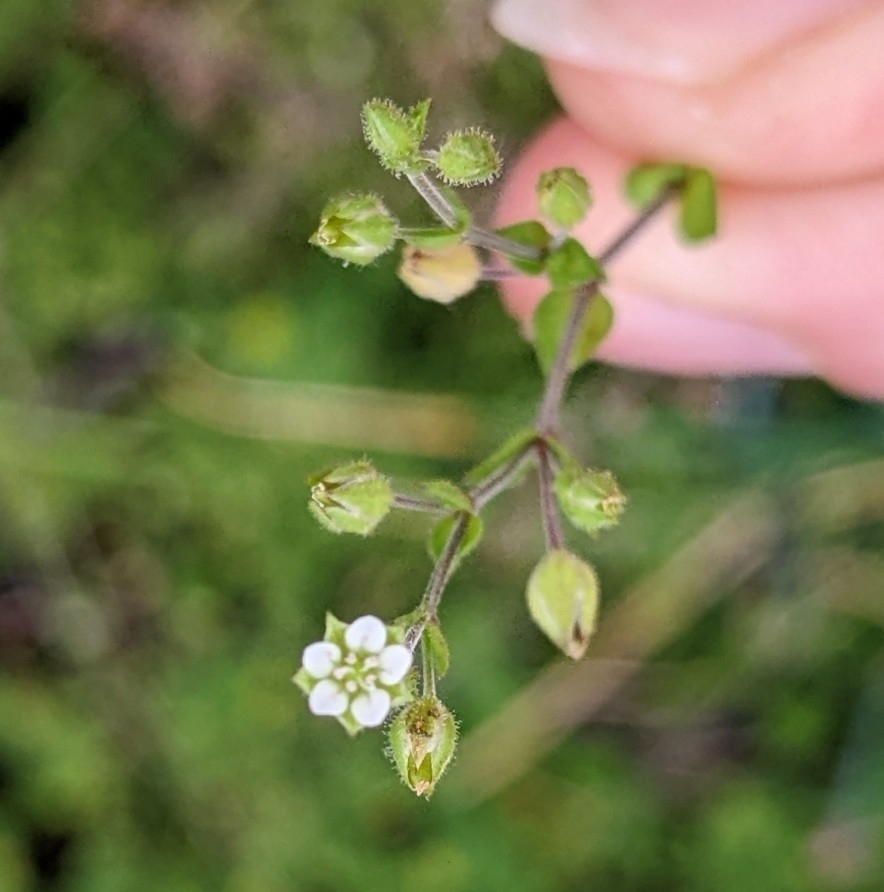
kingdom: Plantae
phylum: Tracheophyta
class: Magnoliopsida
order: Caryophyllales
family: Caryophyllaceae
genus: Arenaria
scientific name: Arenaria serpyllifolia
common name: Thyme-leaved sandwort
